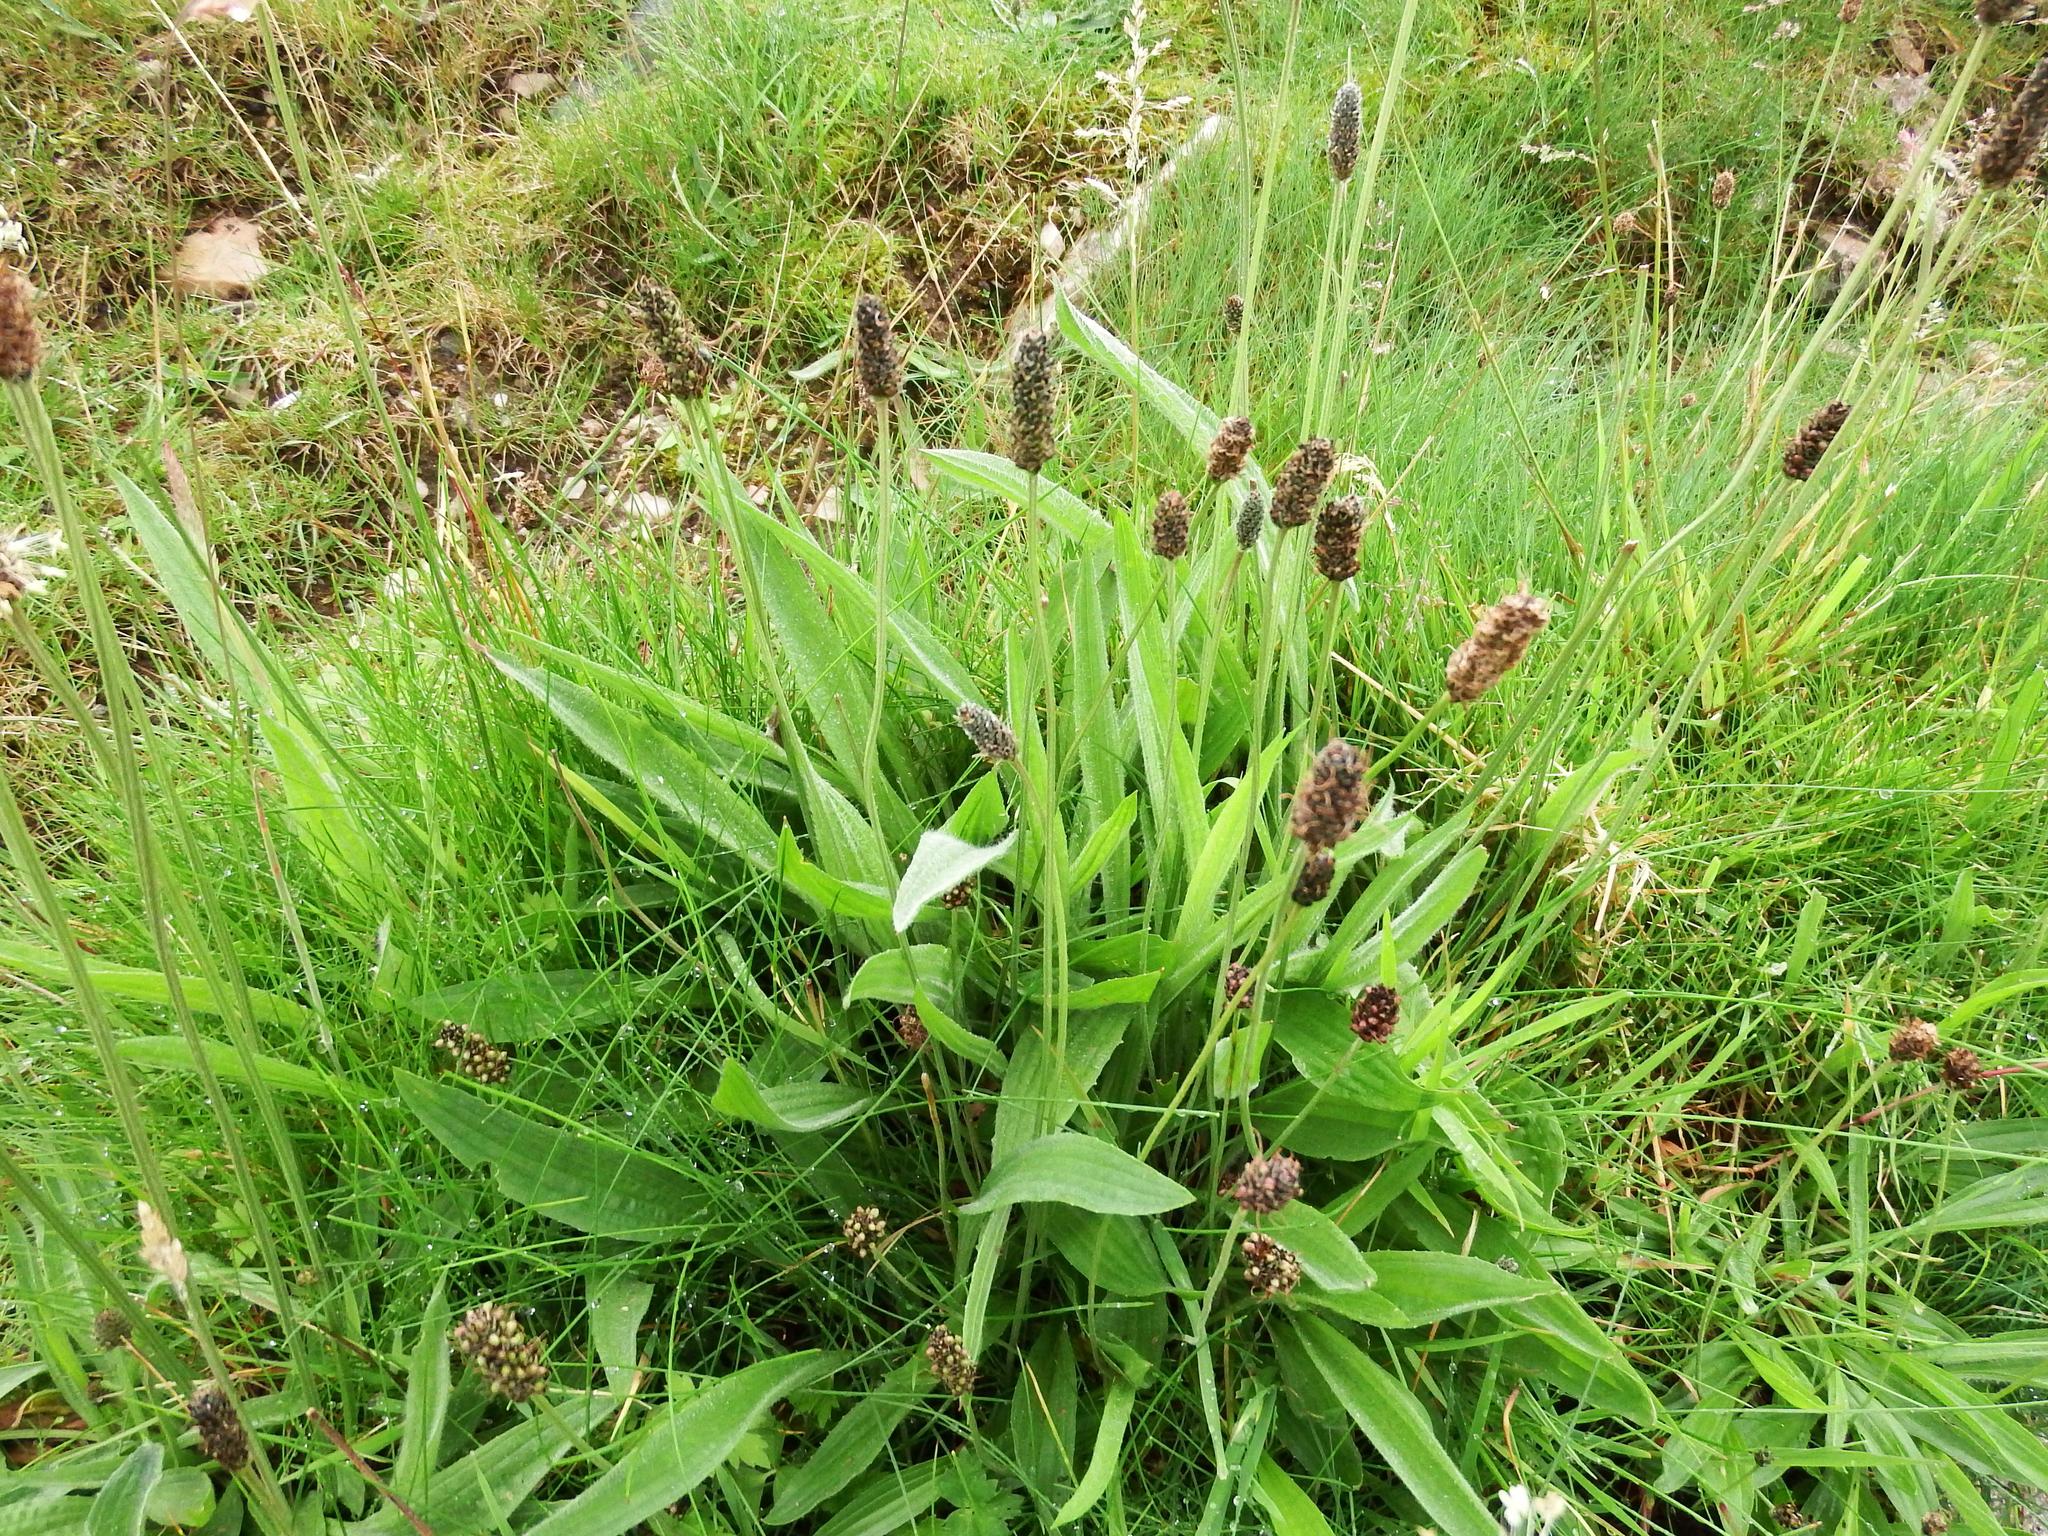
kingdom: Plantae
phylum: Tracheophyta
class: Magnoliopsida
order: Lamiales
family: Plantaginaceae
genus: Plantago
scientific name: Plantago lanceolata
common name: Ribwort plantain
